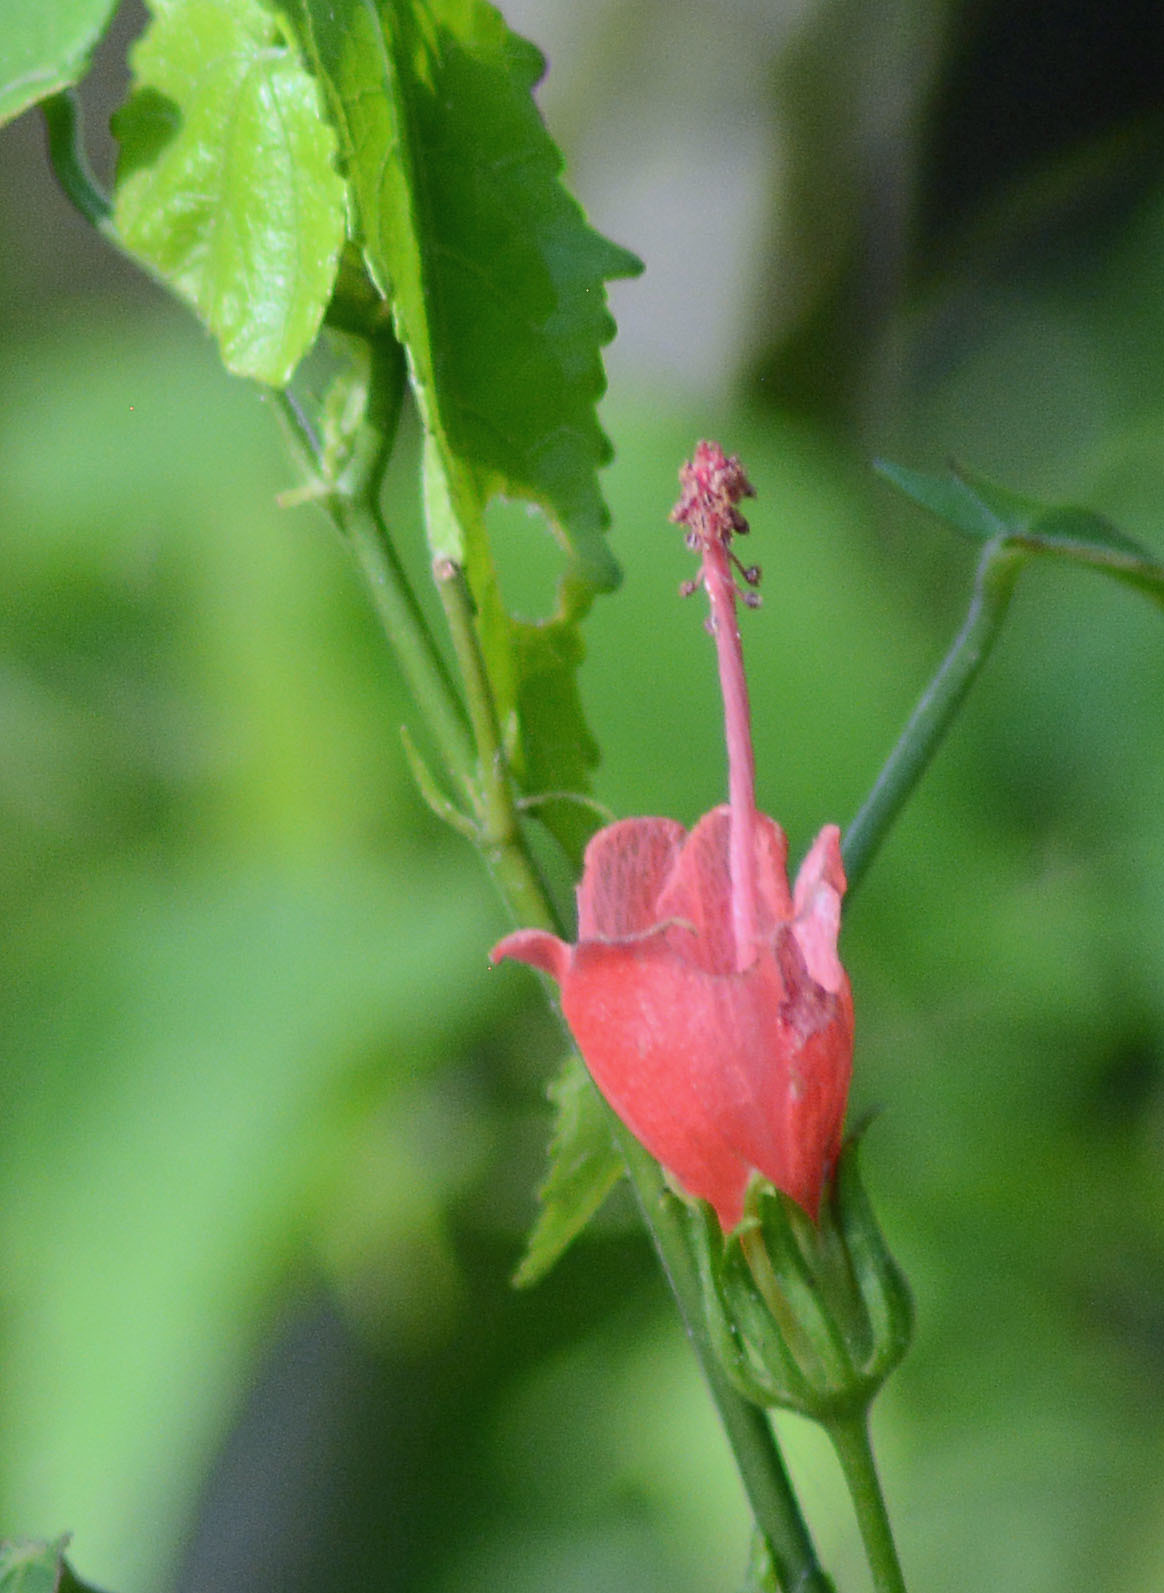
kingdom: Plantae
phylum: Tracheophyta
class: Magnoliopsida
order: Malvales
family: Malvaceae
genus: Malvaviscus
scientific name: Malvaviscus arboreus
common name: Wax mallow
